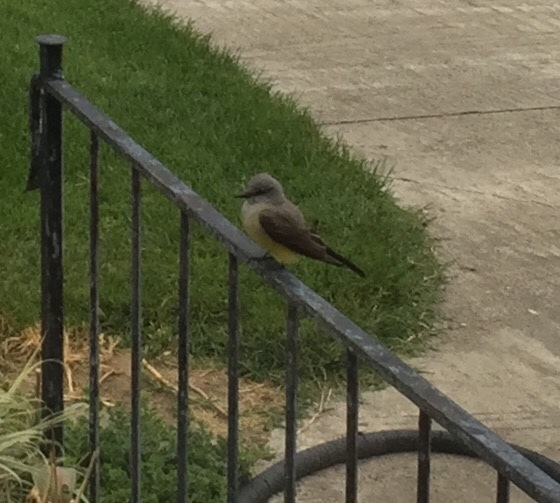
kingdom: Animalia
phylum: Chordata
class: Aves
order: Passeriformes
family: Tyrannidae
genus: Tyrannus
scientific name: Tyrannus verticalis
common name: Western kingbird
